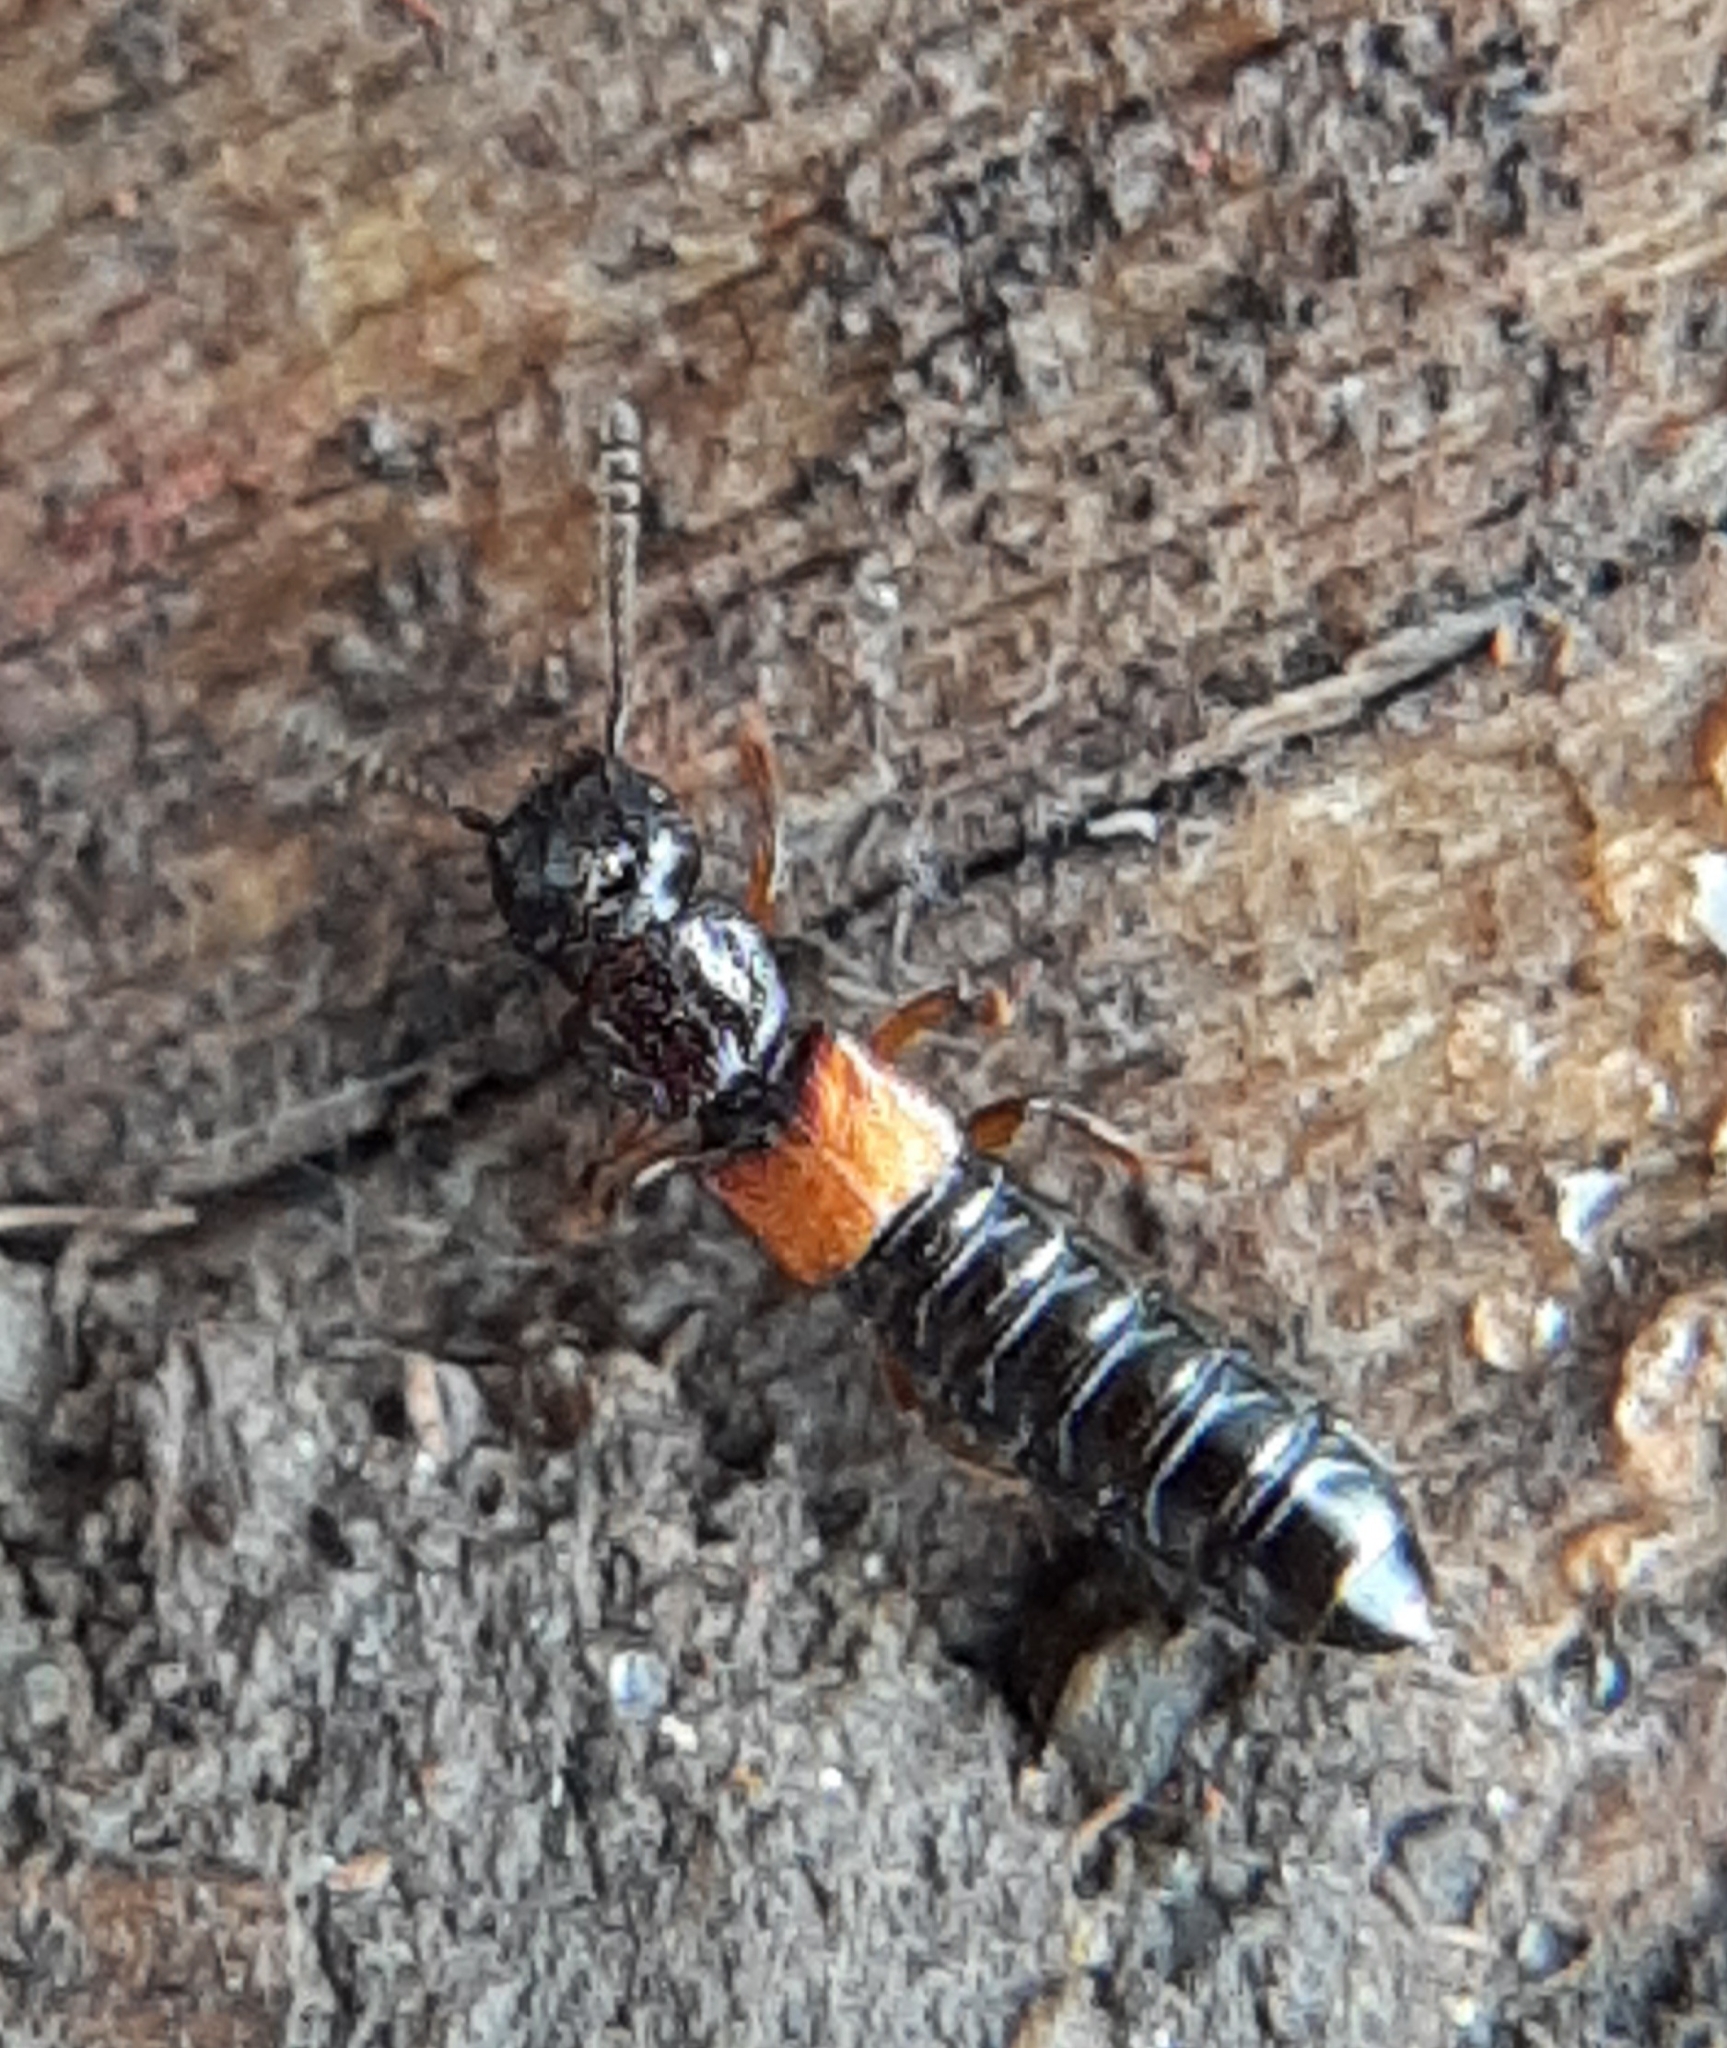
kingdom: Animalia
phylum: Arthropoda
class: Insecta
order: Coleoptera
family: Staphylinidae
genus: Anotylus
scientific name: Anotylus insecatus
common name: Rove beetle
